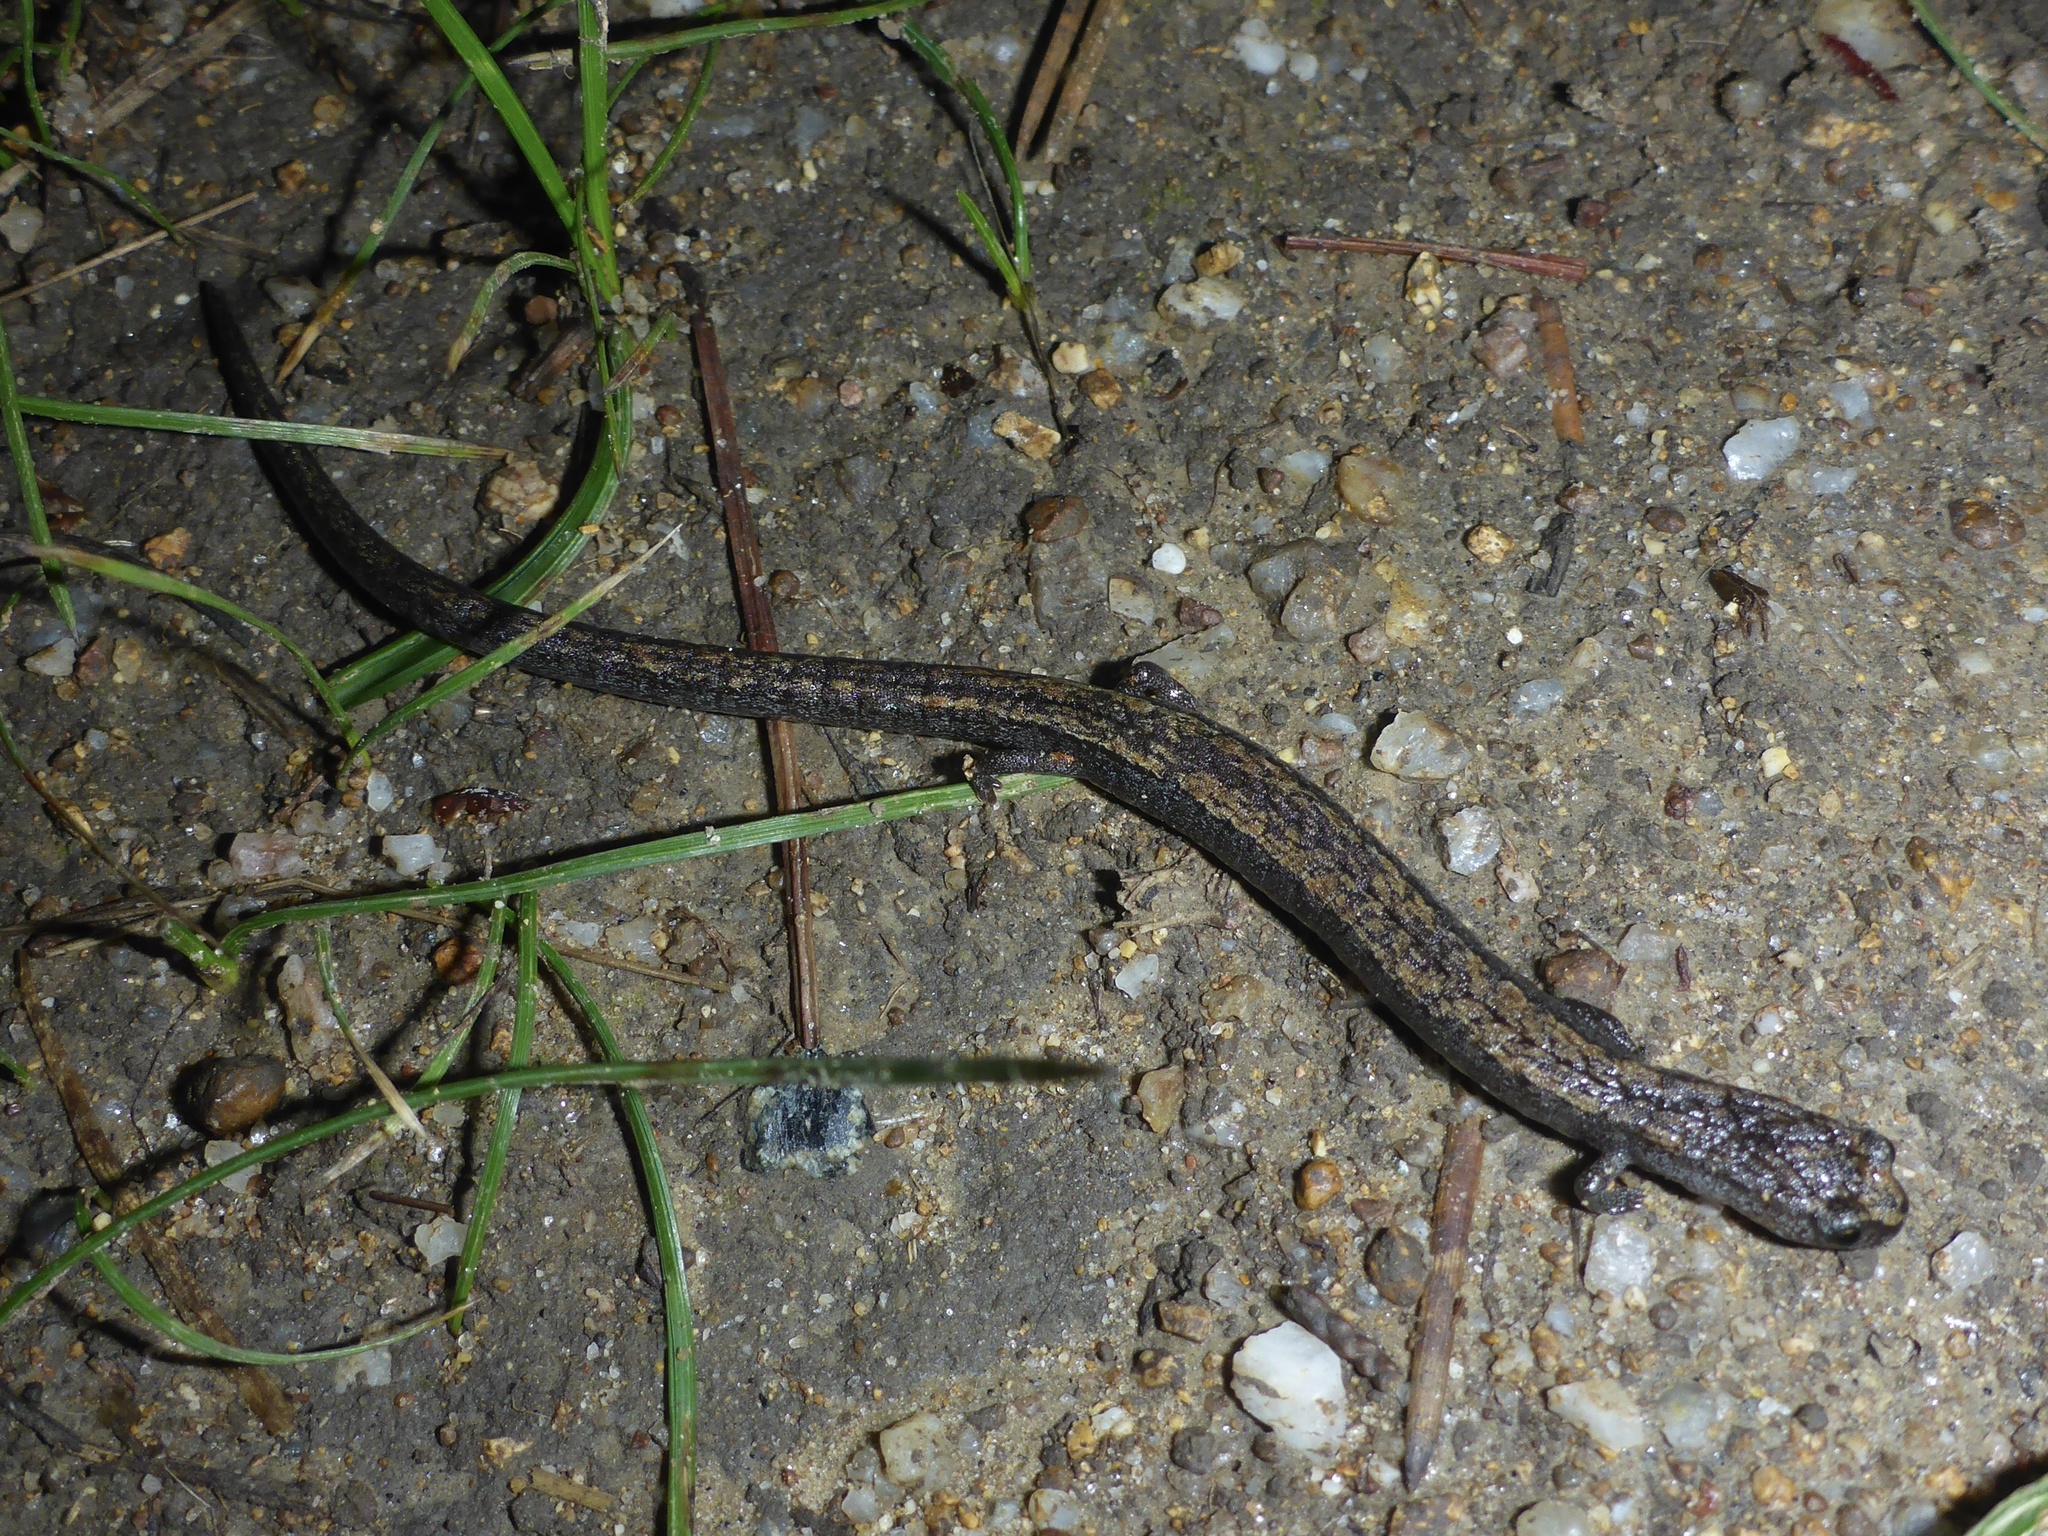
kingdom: Animalia
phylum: Chordata
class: Amphibia
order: Caudata
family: Plethodontidae
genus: Batrachoseps
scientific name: Batrachoseps attenuatus
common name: California slender salamander
